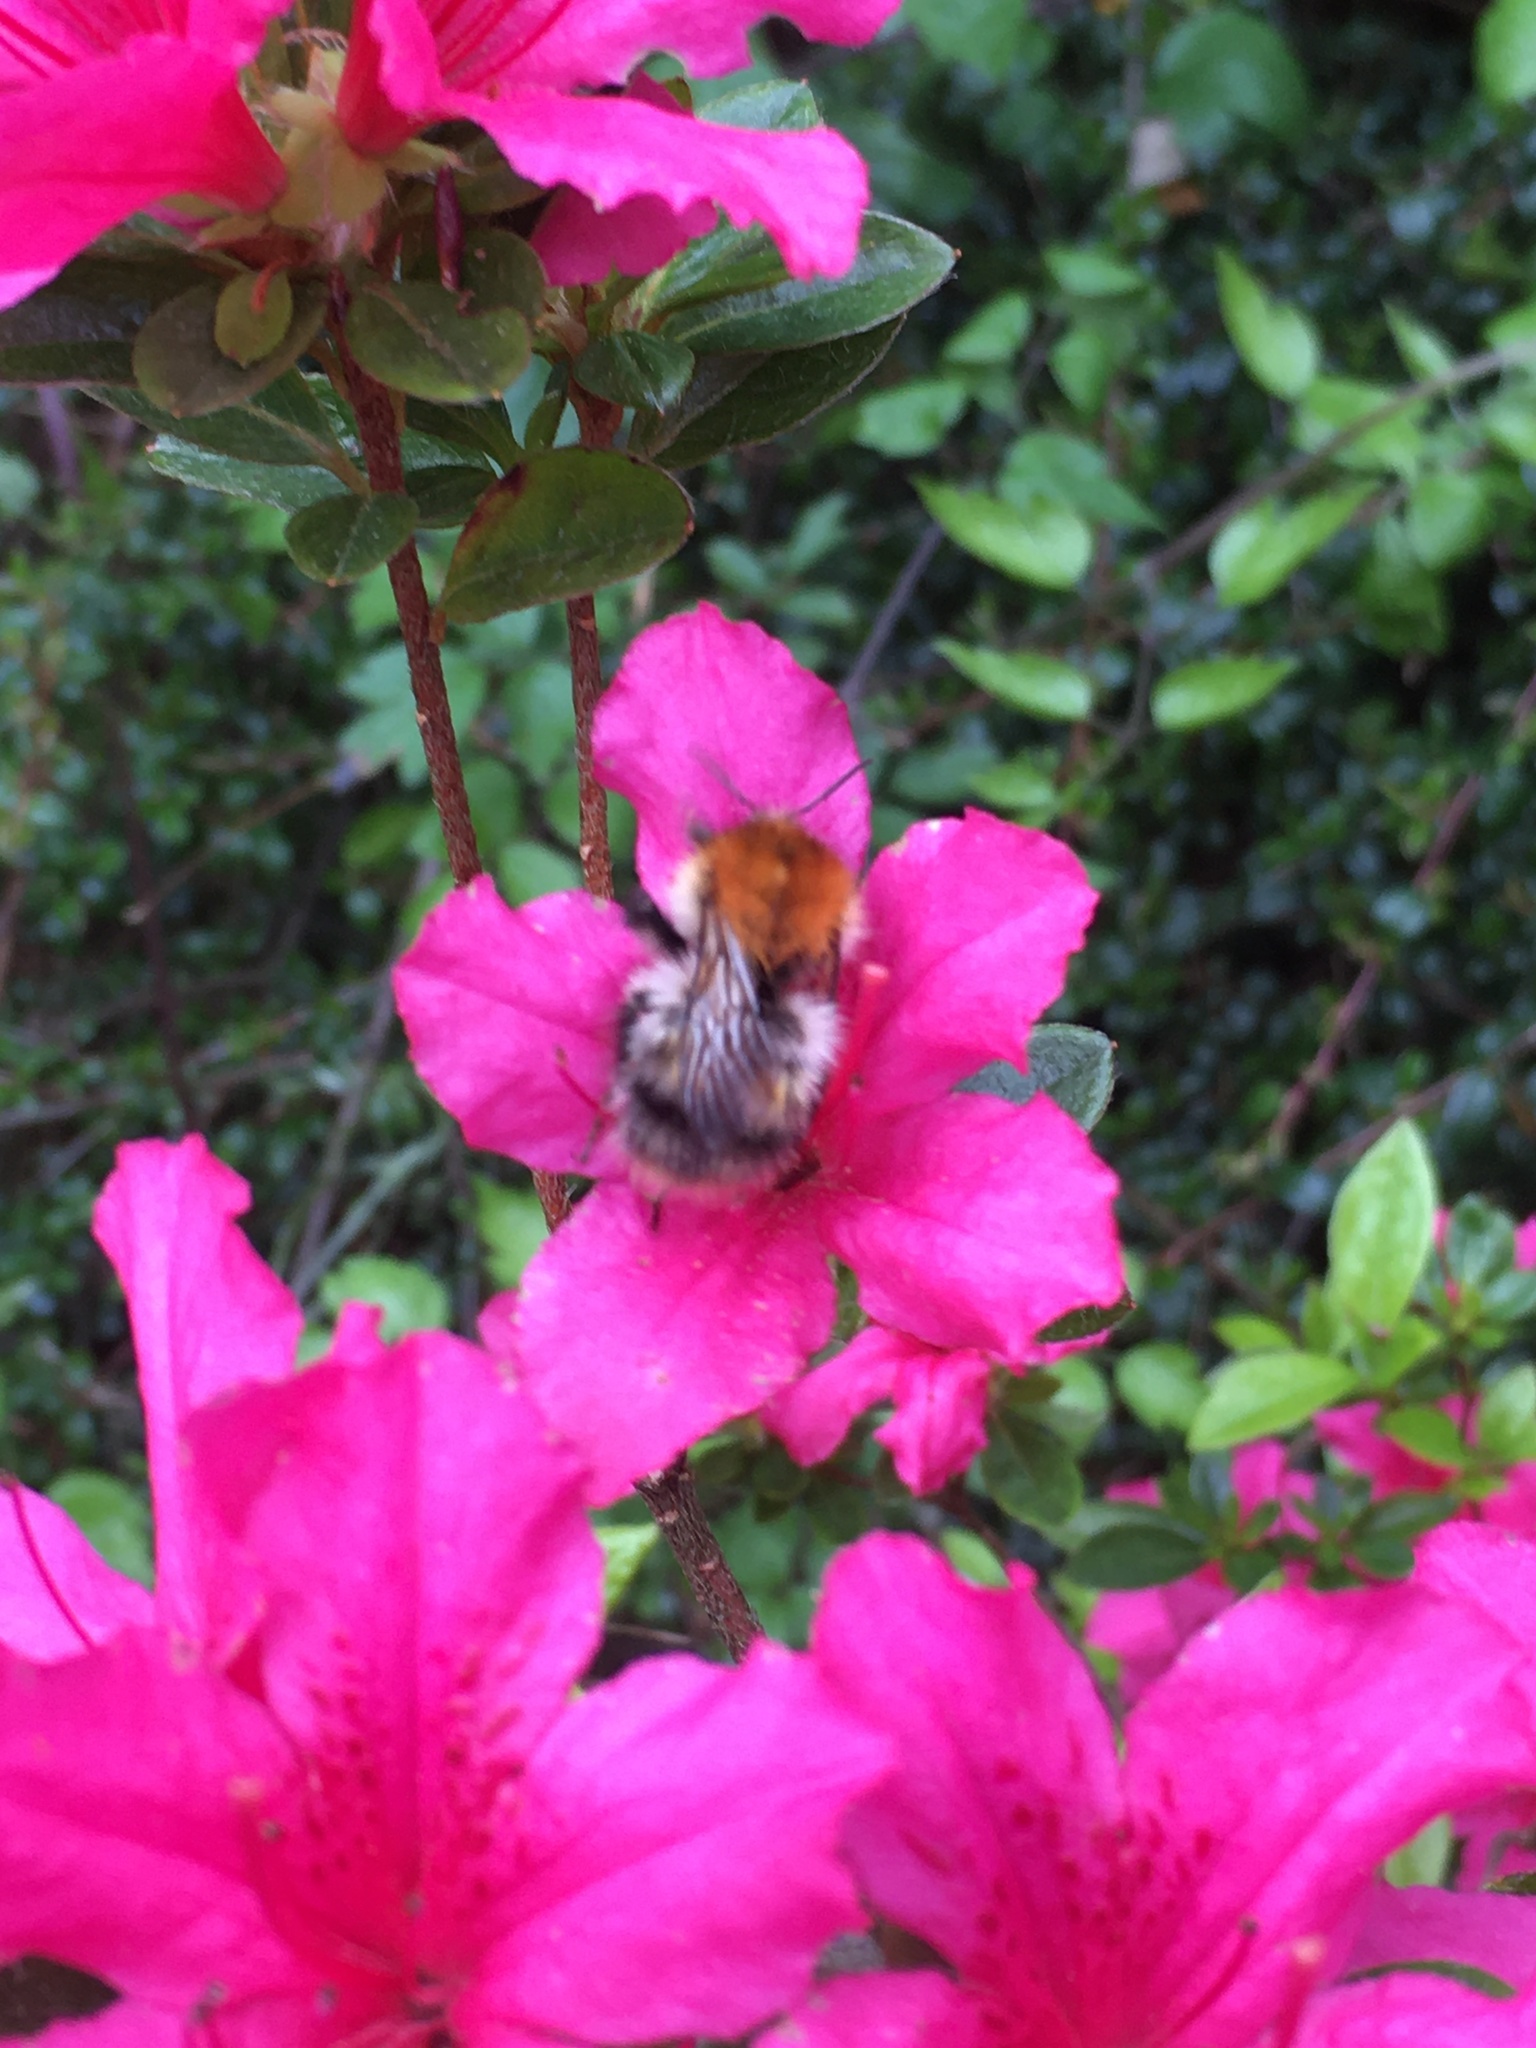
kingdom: Animalia
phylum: Arthropoda
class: Insecta
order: Hymenoptera
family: Apidae
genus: Bombus
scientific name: Bombus pascuorum
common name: Common carder bee
